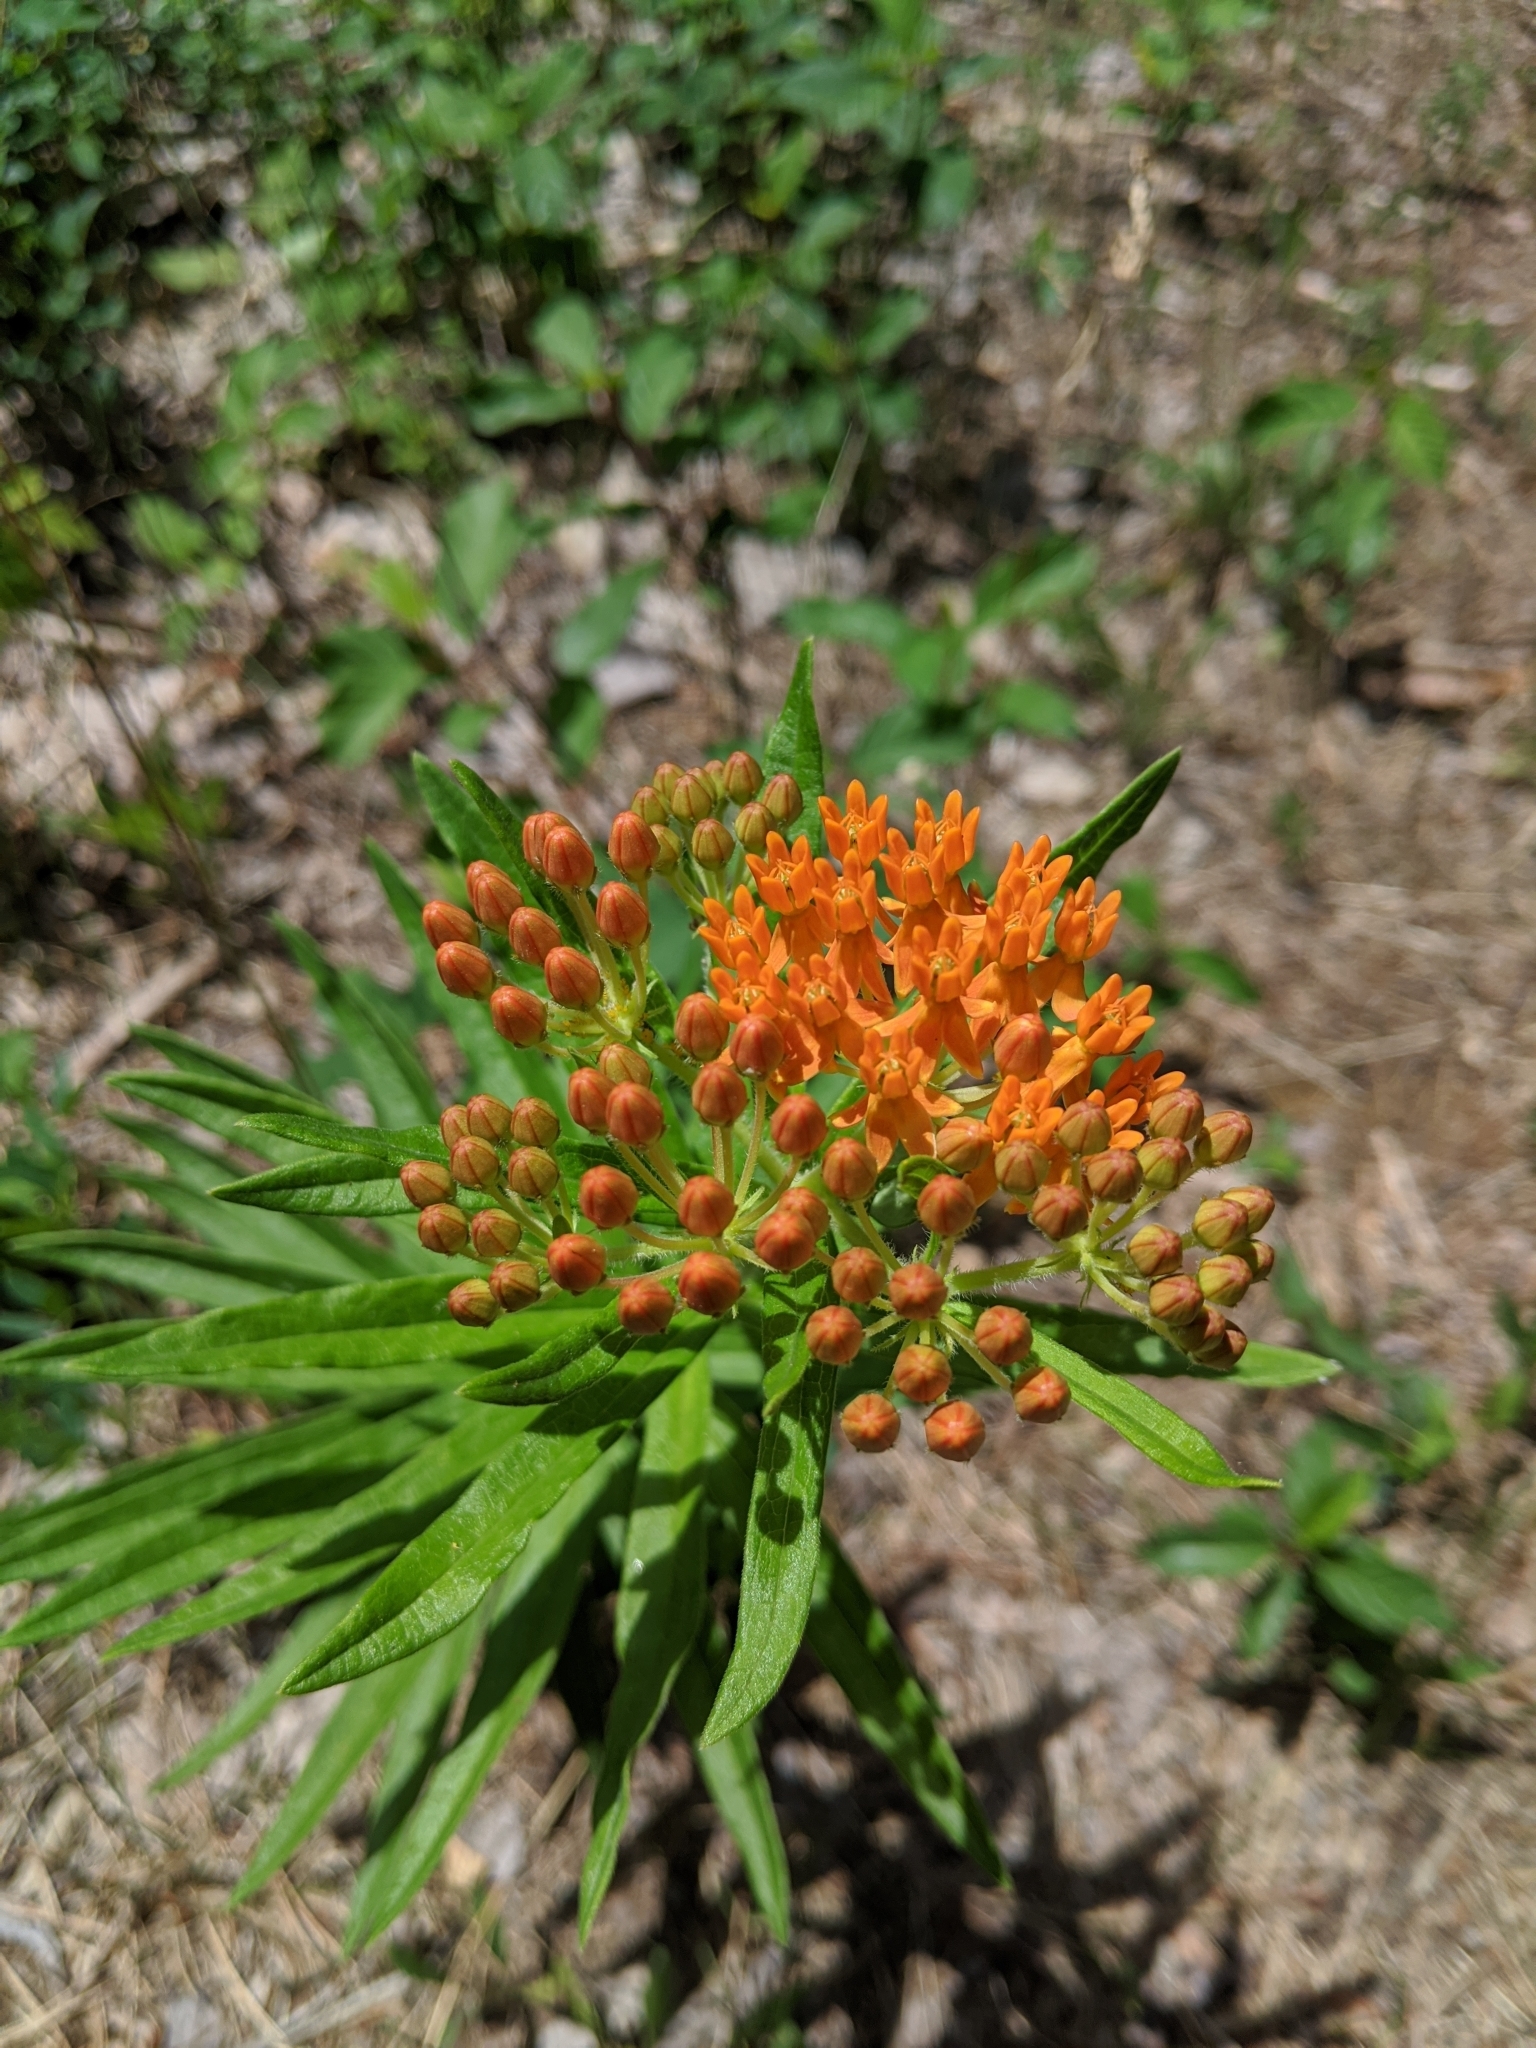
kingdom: Plantae
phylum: Tracheophyta
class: Magnoliopsida
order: Gentianales
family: Apocynaceae
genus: Asclepias
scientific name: Asclepias tuberosa
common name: Butterfly milkweed
